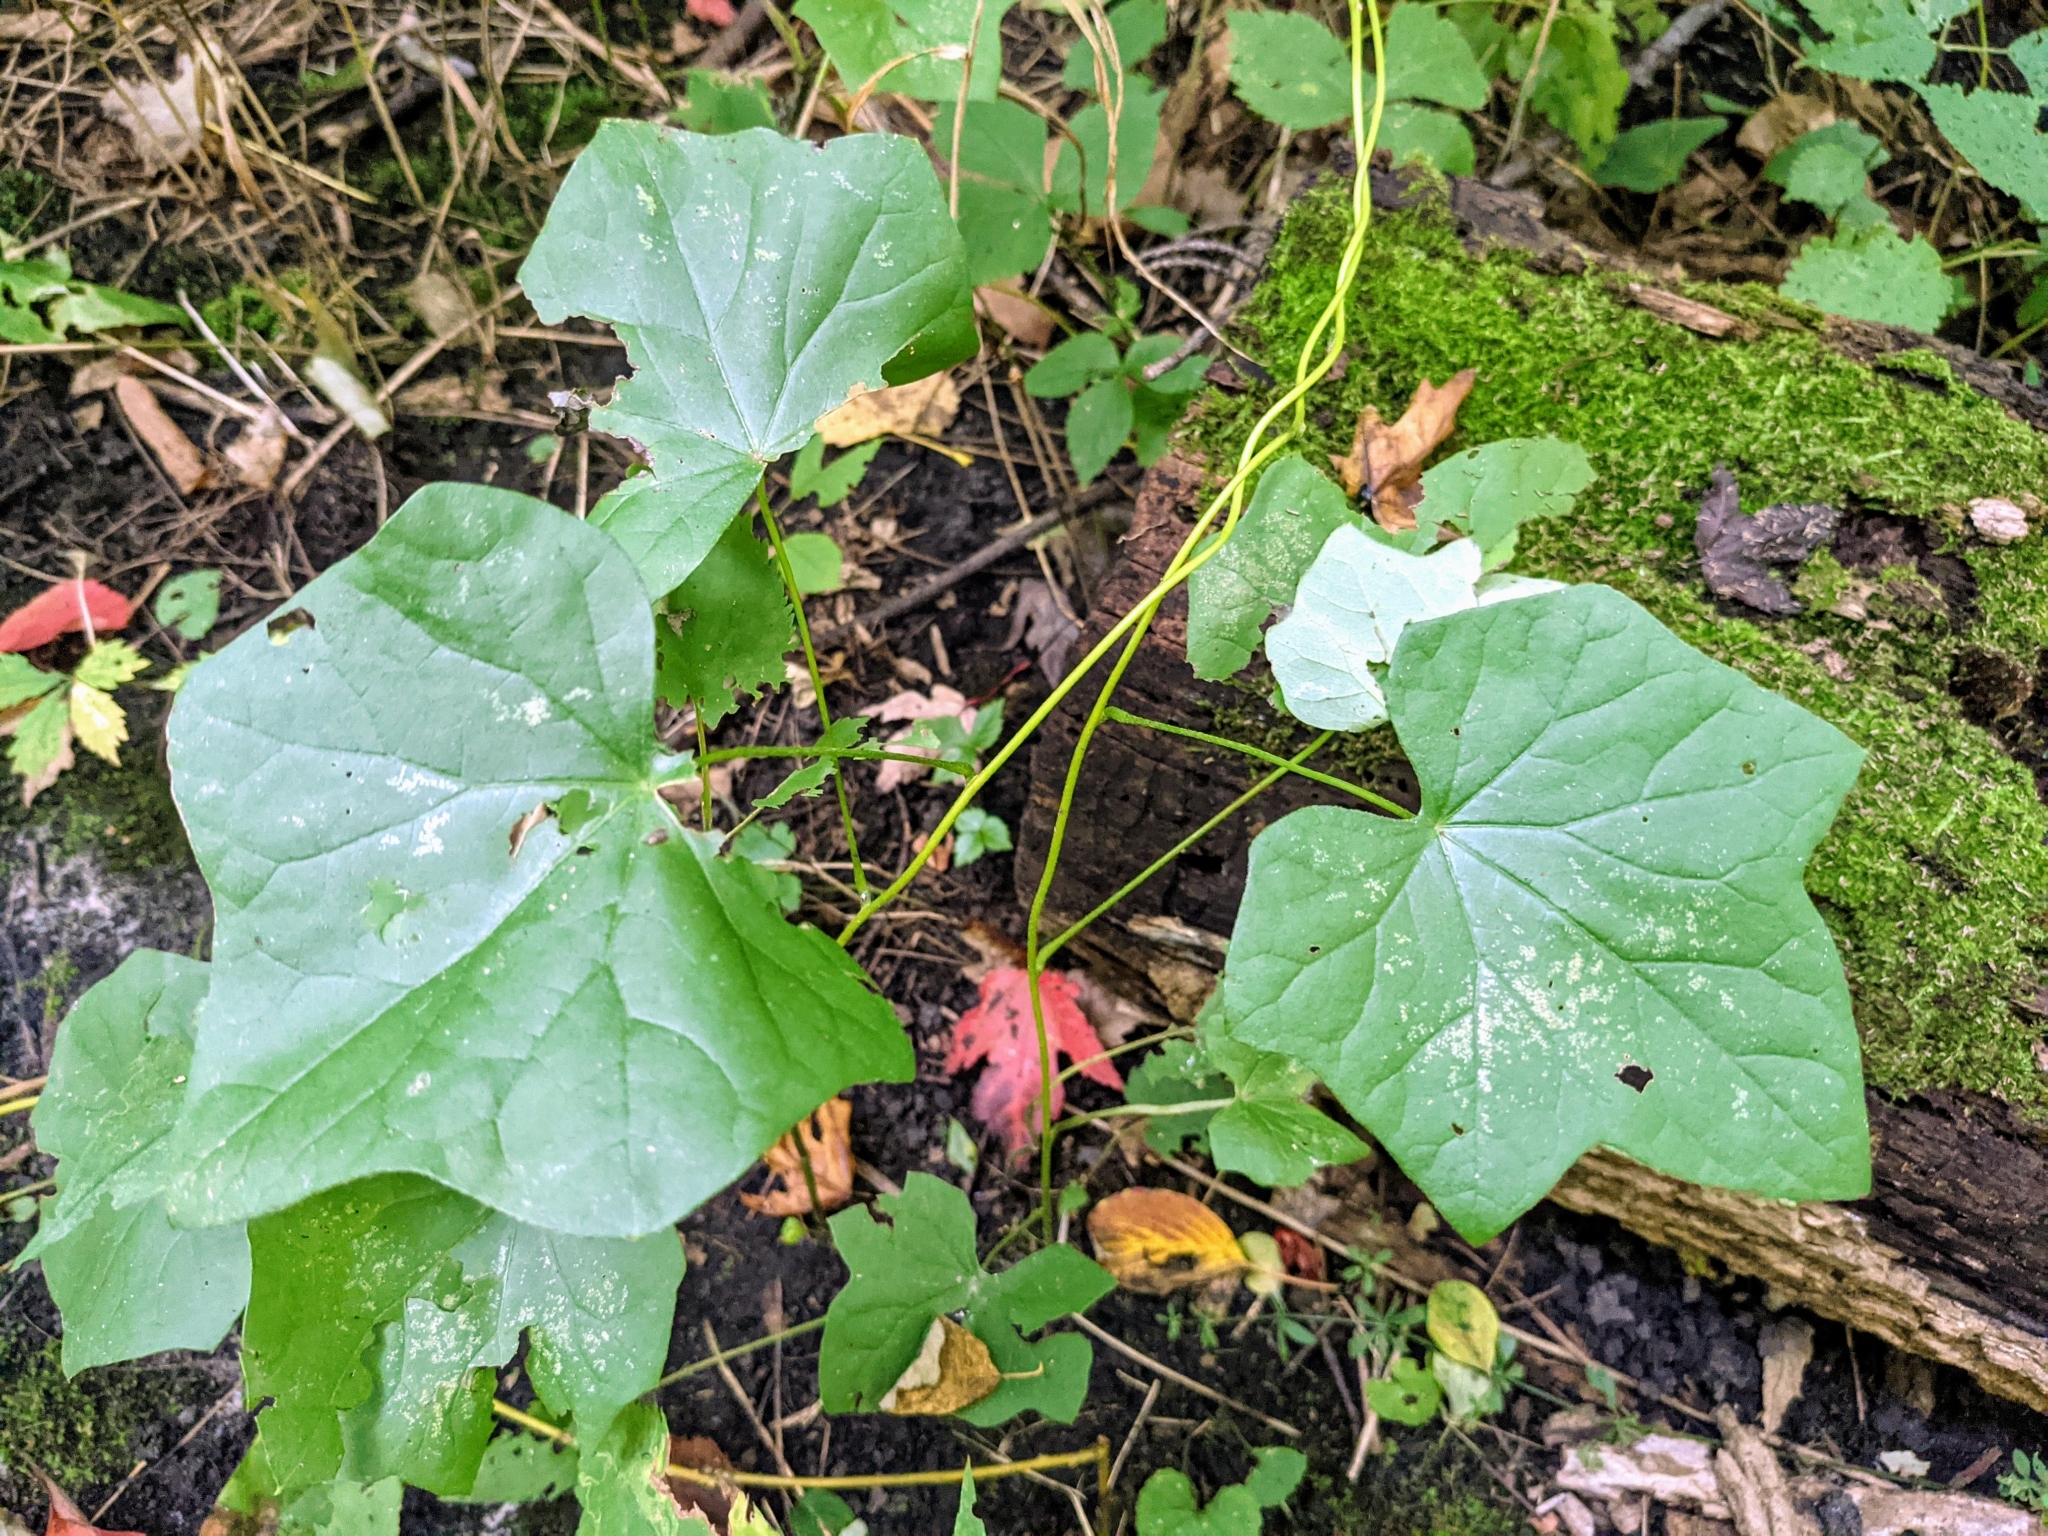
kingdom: Plantae
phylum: Tracheophyta
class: Magnoliopsida
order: Ranunculales
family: Menispermaceae
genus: Menispermum
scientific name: Menispermum canadense
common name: Moonseed
